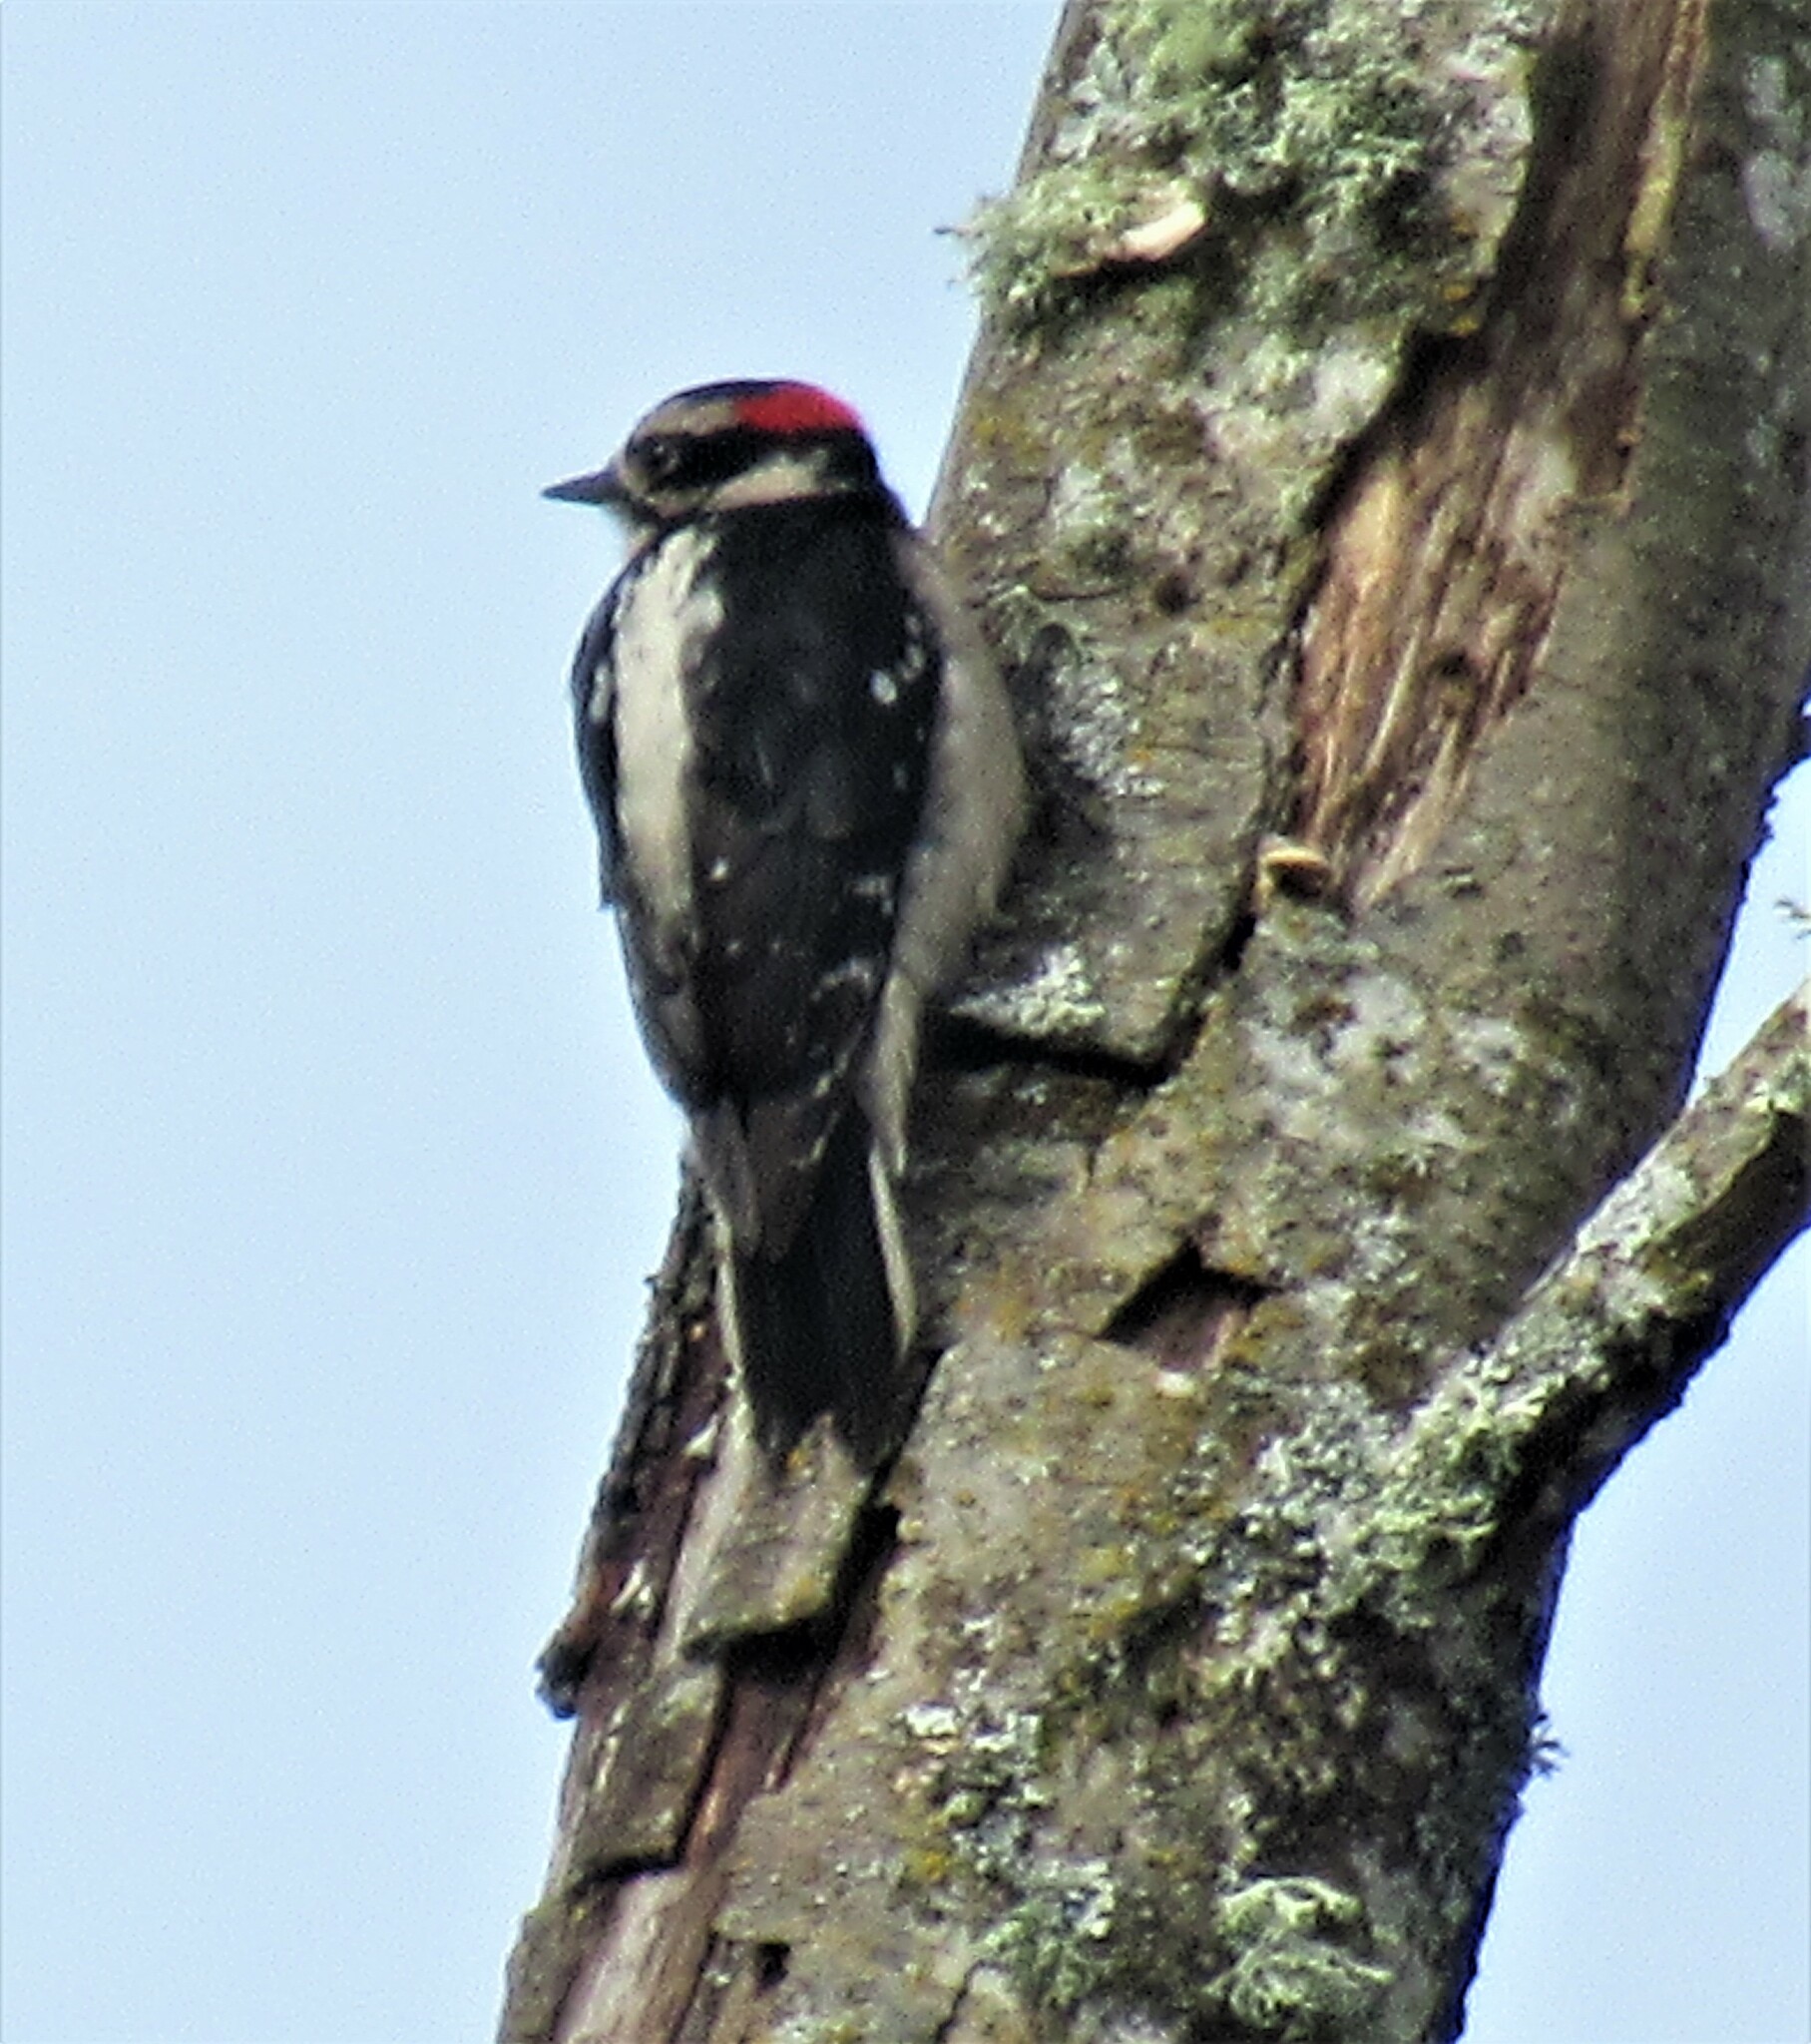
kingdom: Animalia
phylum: Chordata
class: Aves
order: Piciformes
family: Picidae
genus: Dryobates
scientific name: Dryobates pubescens
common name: Downy woodpecker
